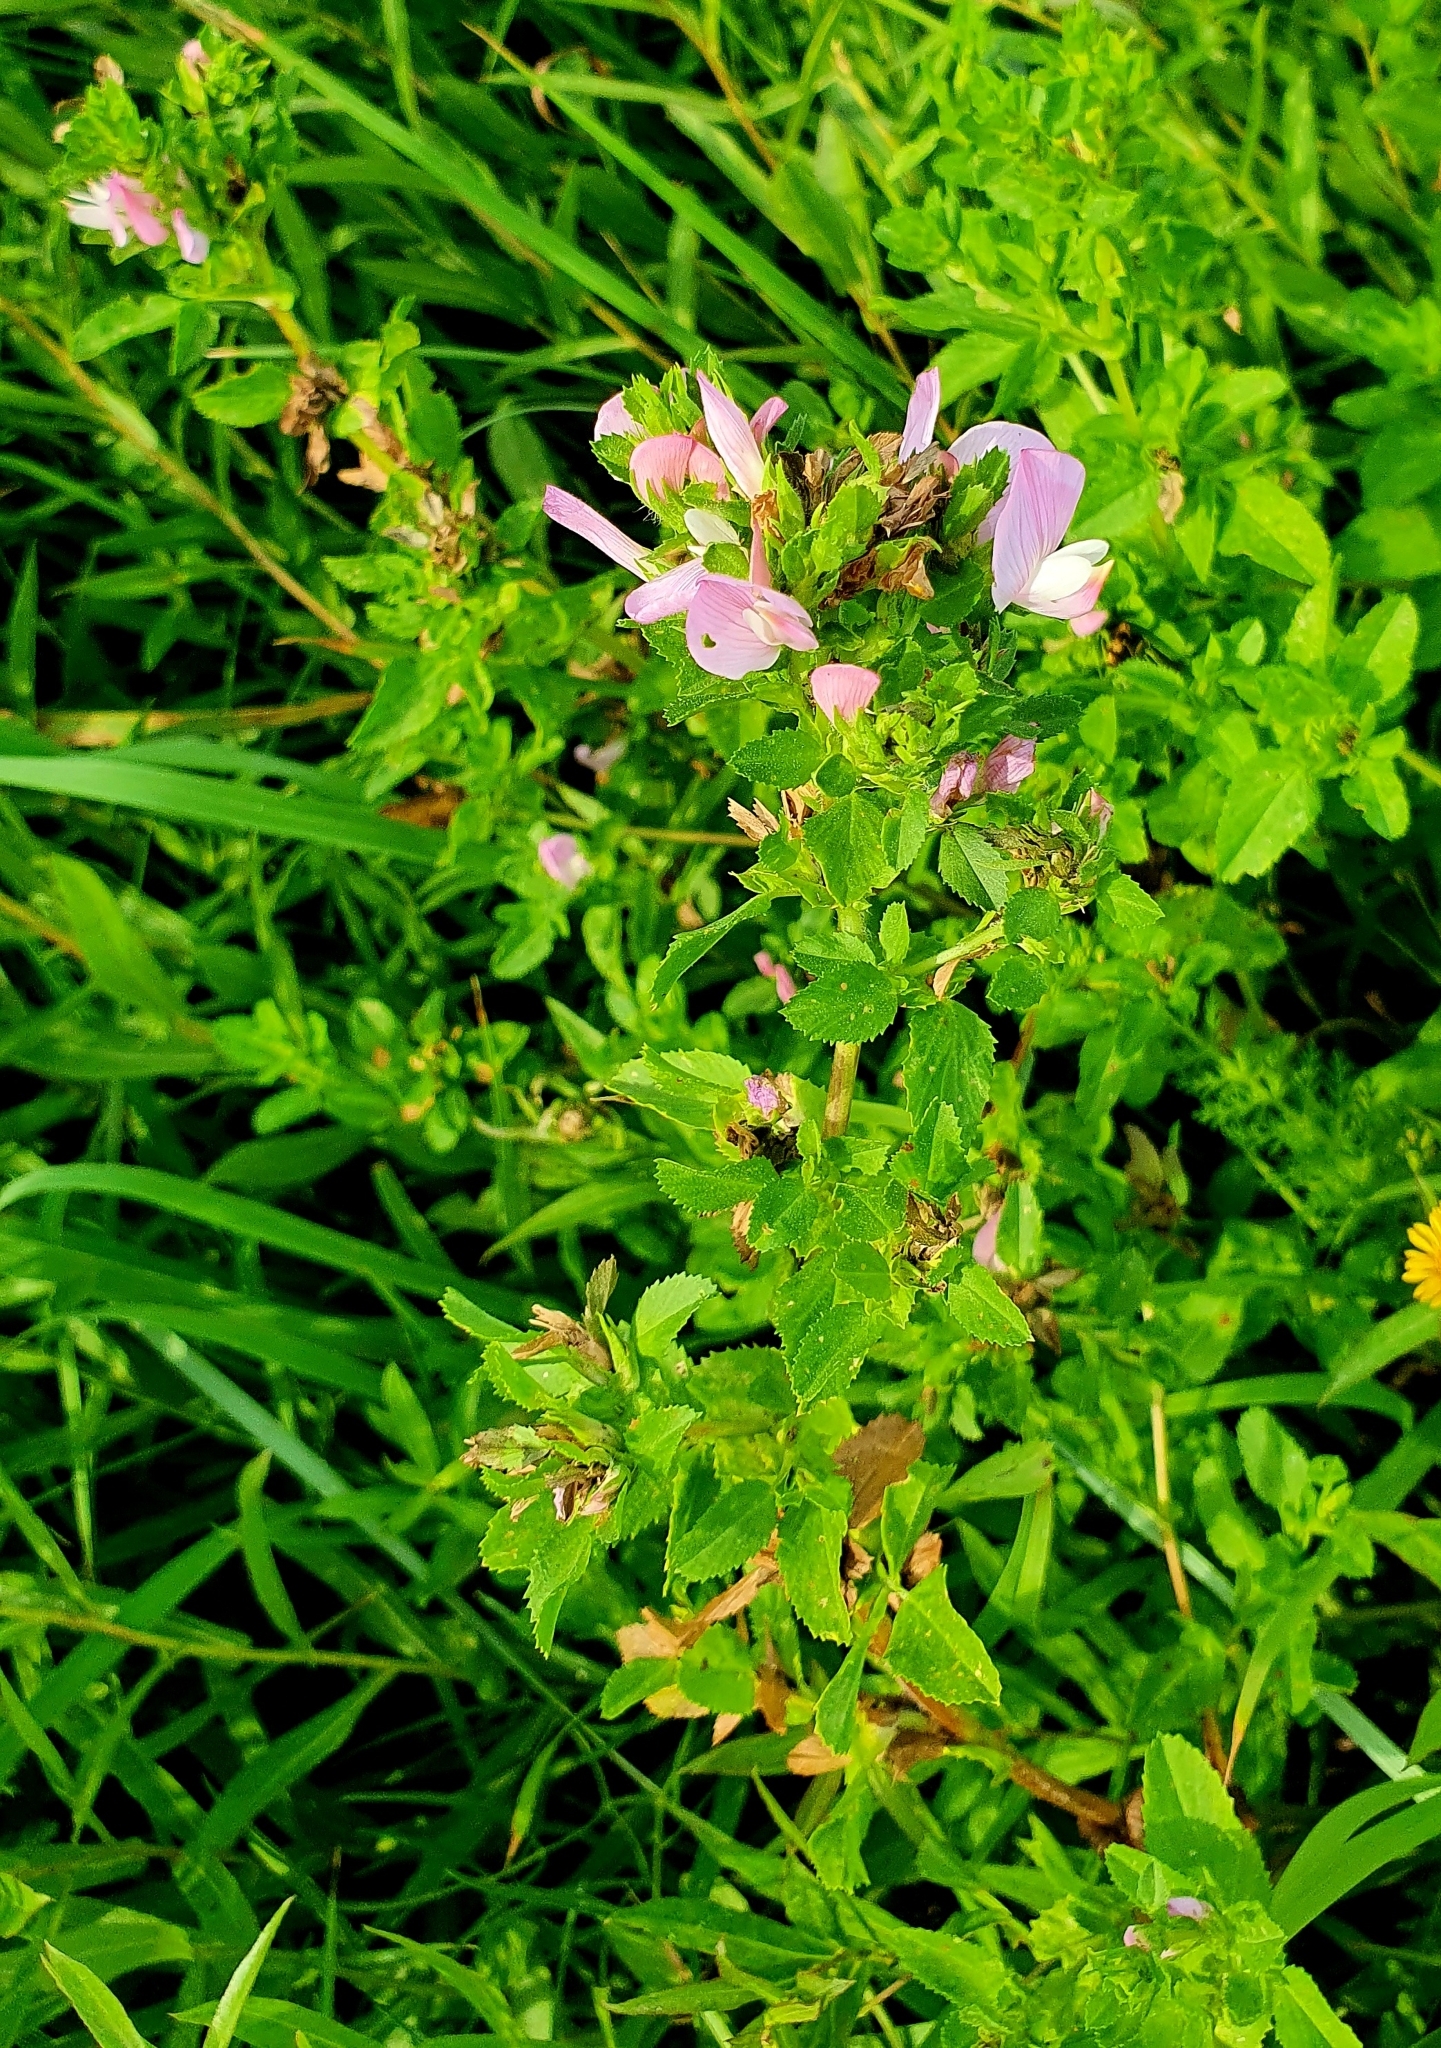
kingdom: Plantae
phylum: Tracheophyta
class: Magnoliopsida
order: Fabales
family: Fabaceae
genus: Ononis
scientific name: Ononis arvensis
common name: Field restharrow
